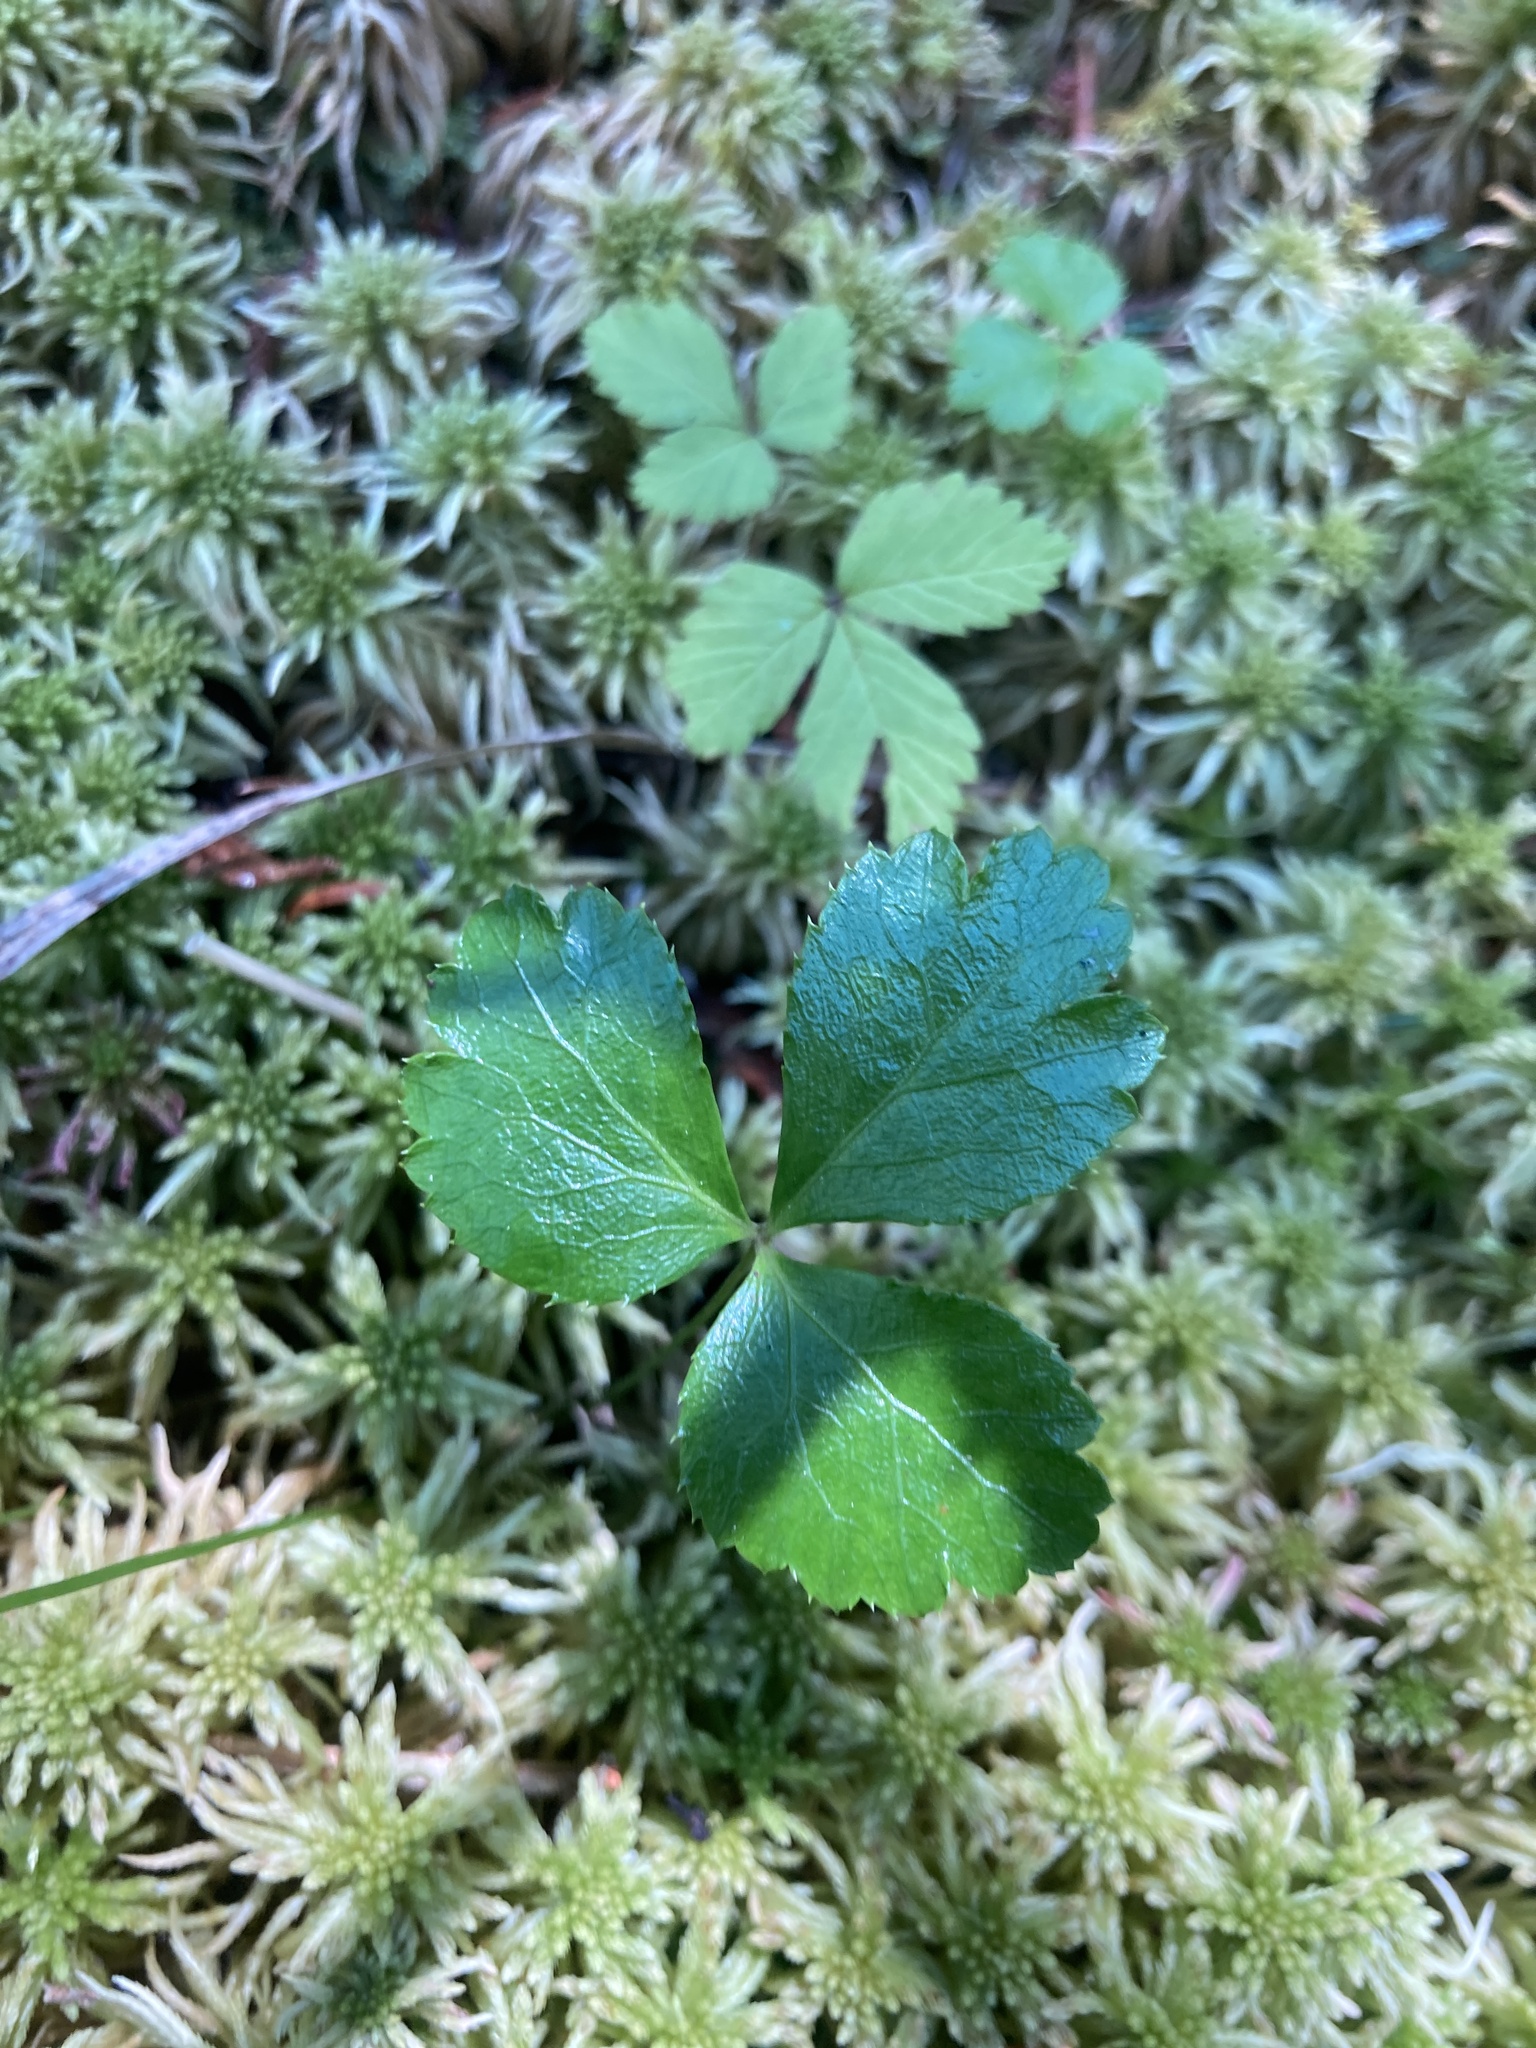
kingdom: Plantae
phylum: Tracheophyta
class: Magnoliopsida
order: Ranunculales
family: Ranunculaceae
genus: Coptis
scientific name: Coptis trifolia
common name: Canker-root
